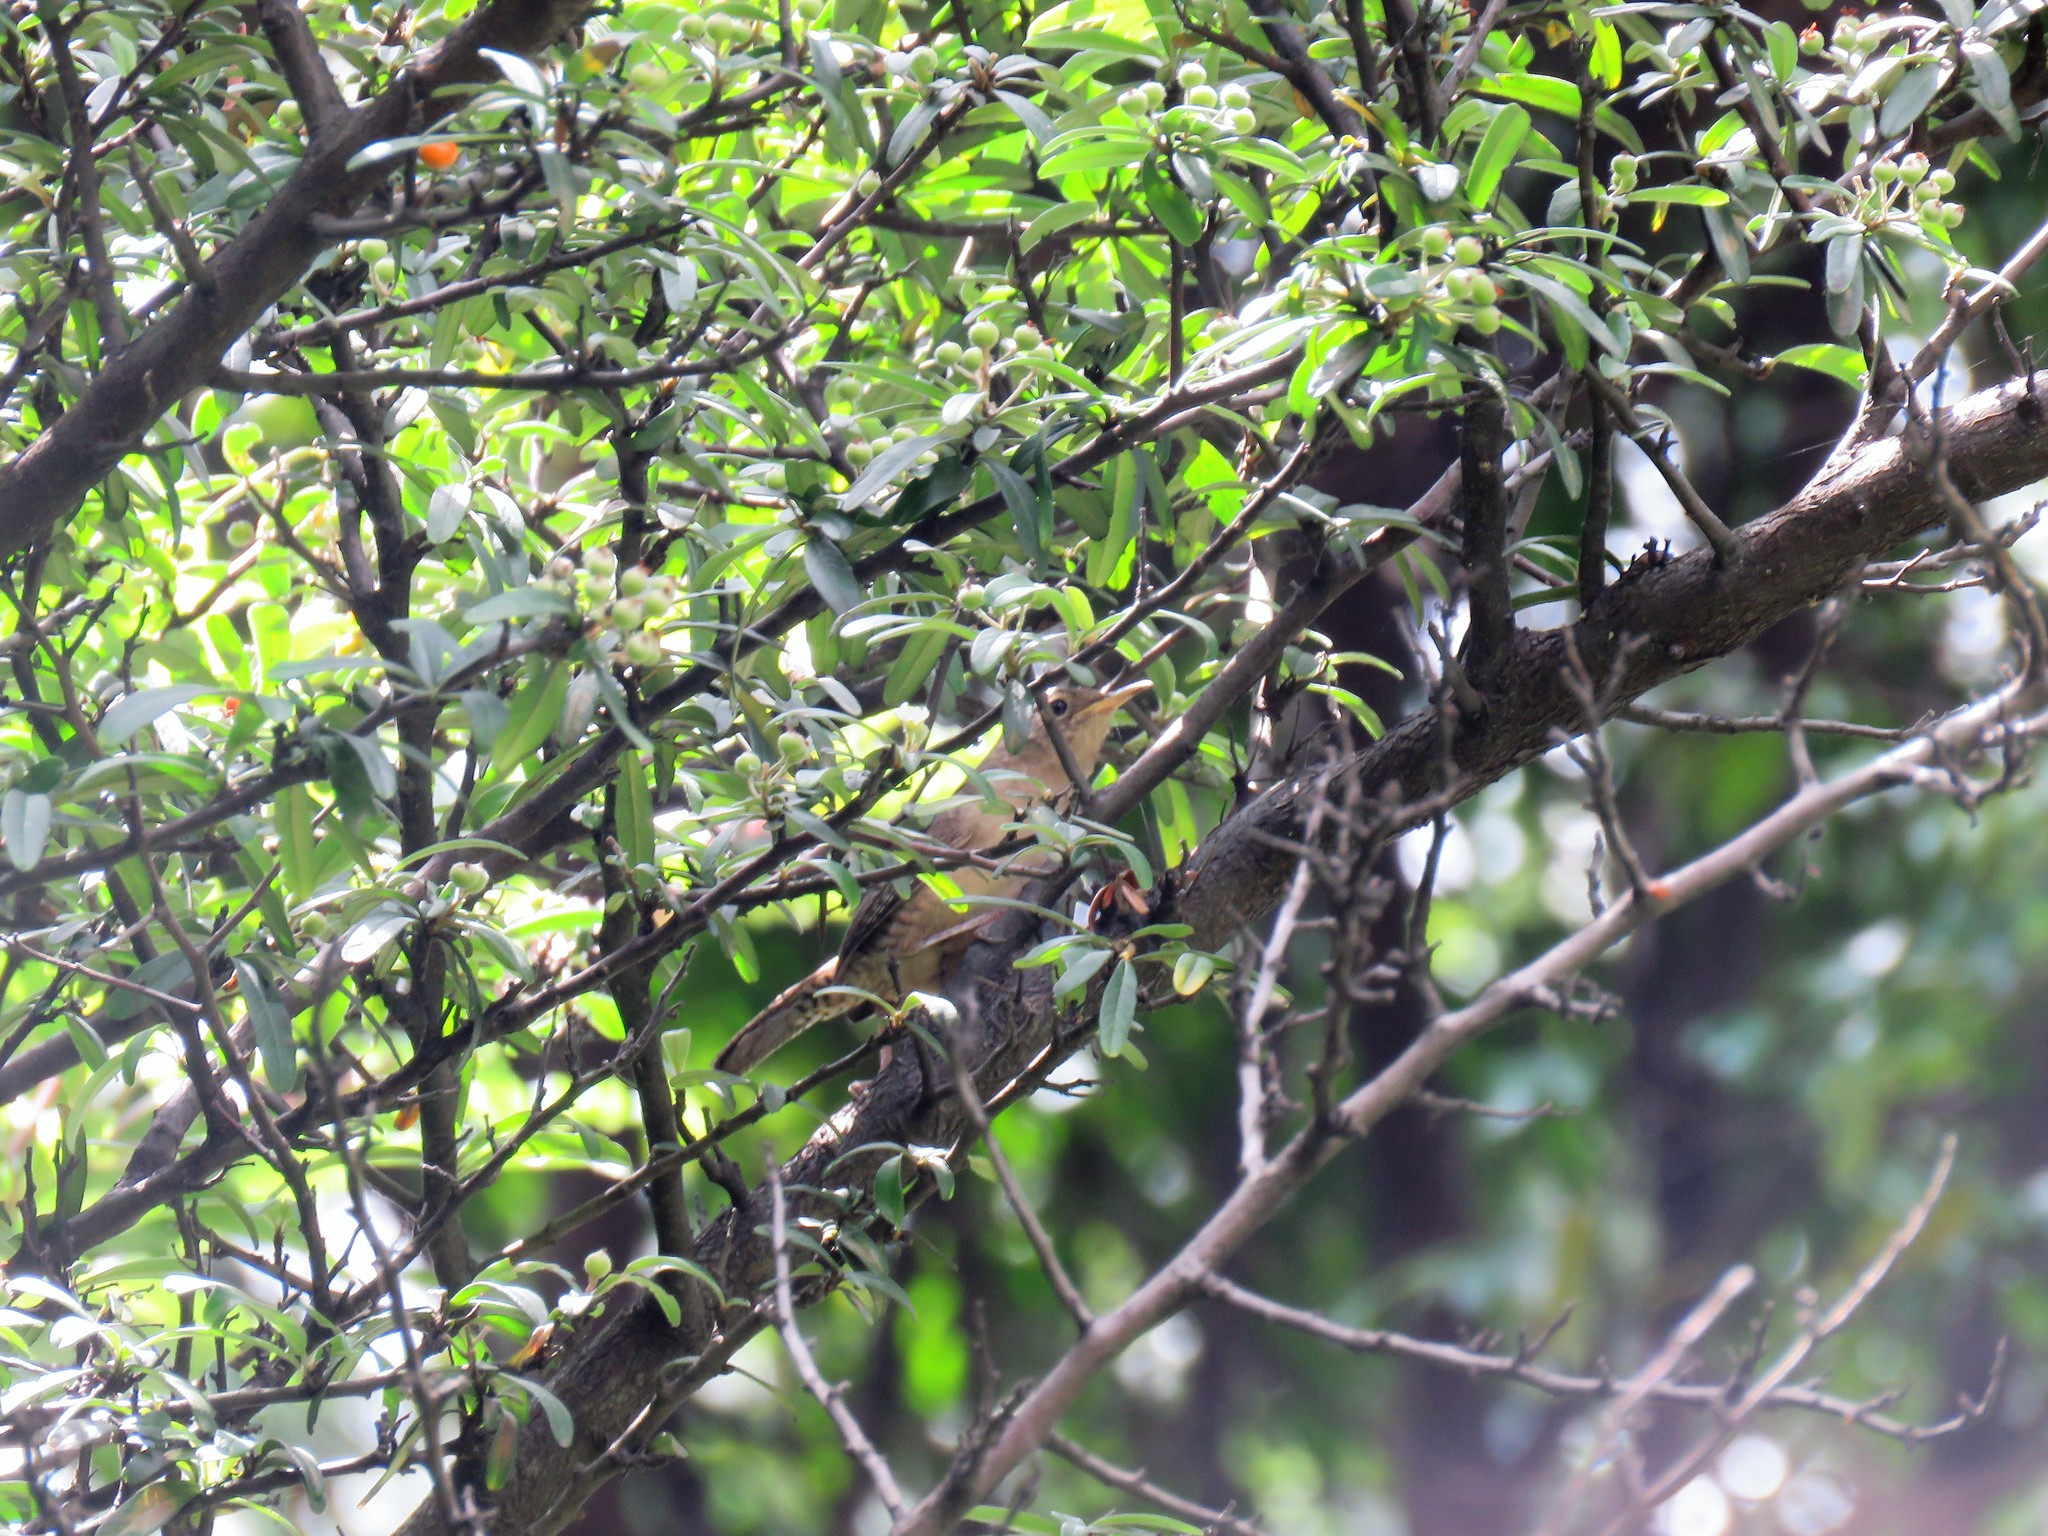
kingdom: Animalia
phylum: Chordata
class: Aves
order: Passeriformes
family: Troglodytidae
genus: Troglodytes
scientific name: Troglodytes aedon
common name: House wren
